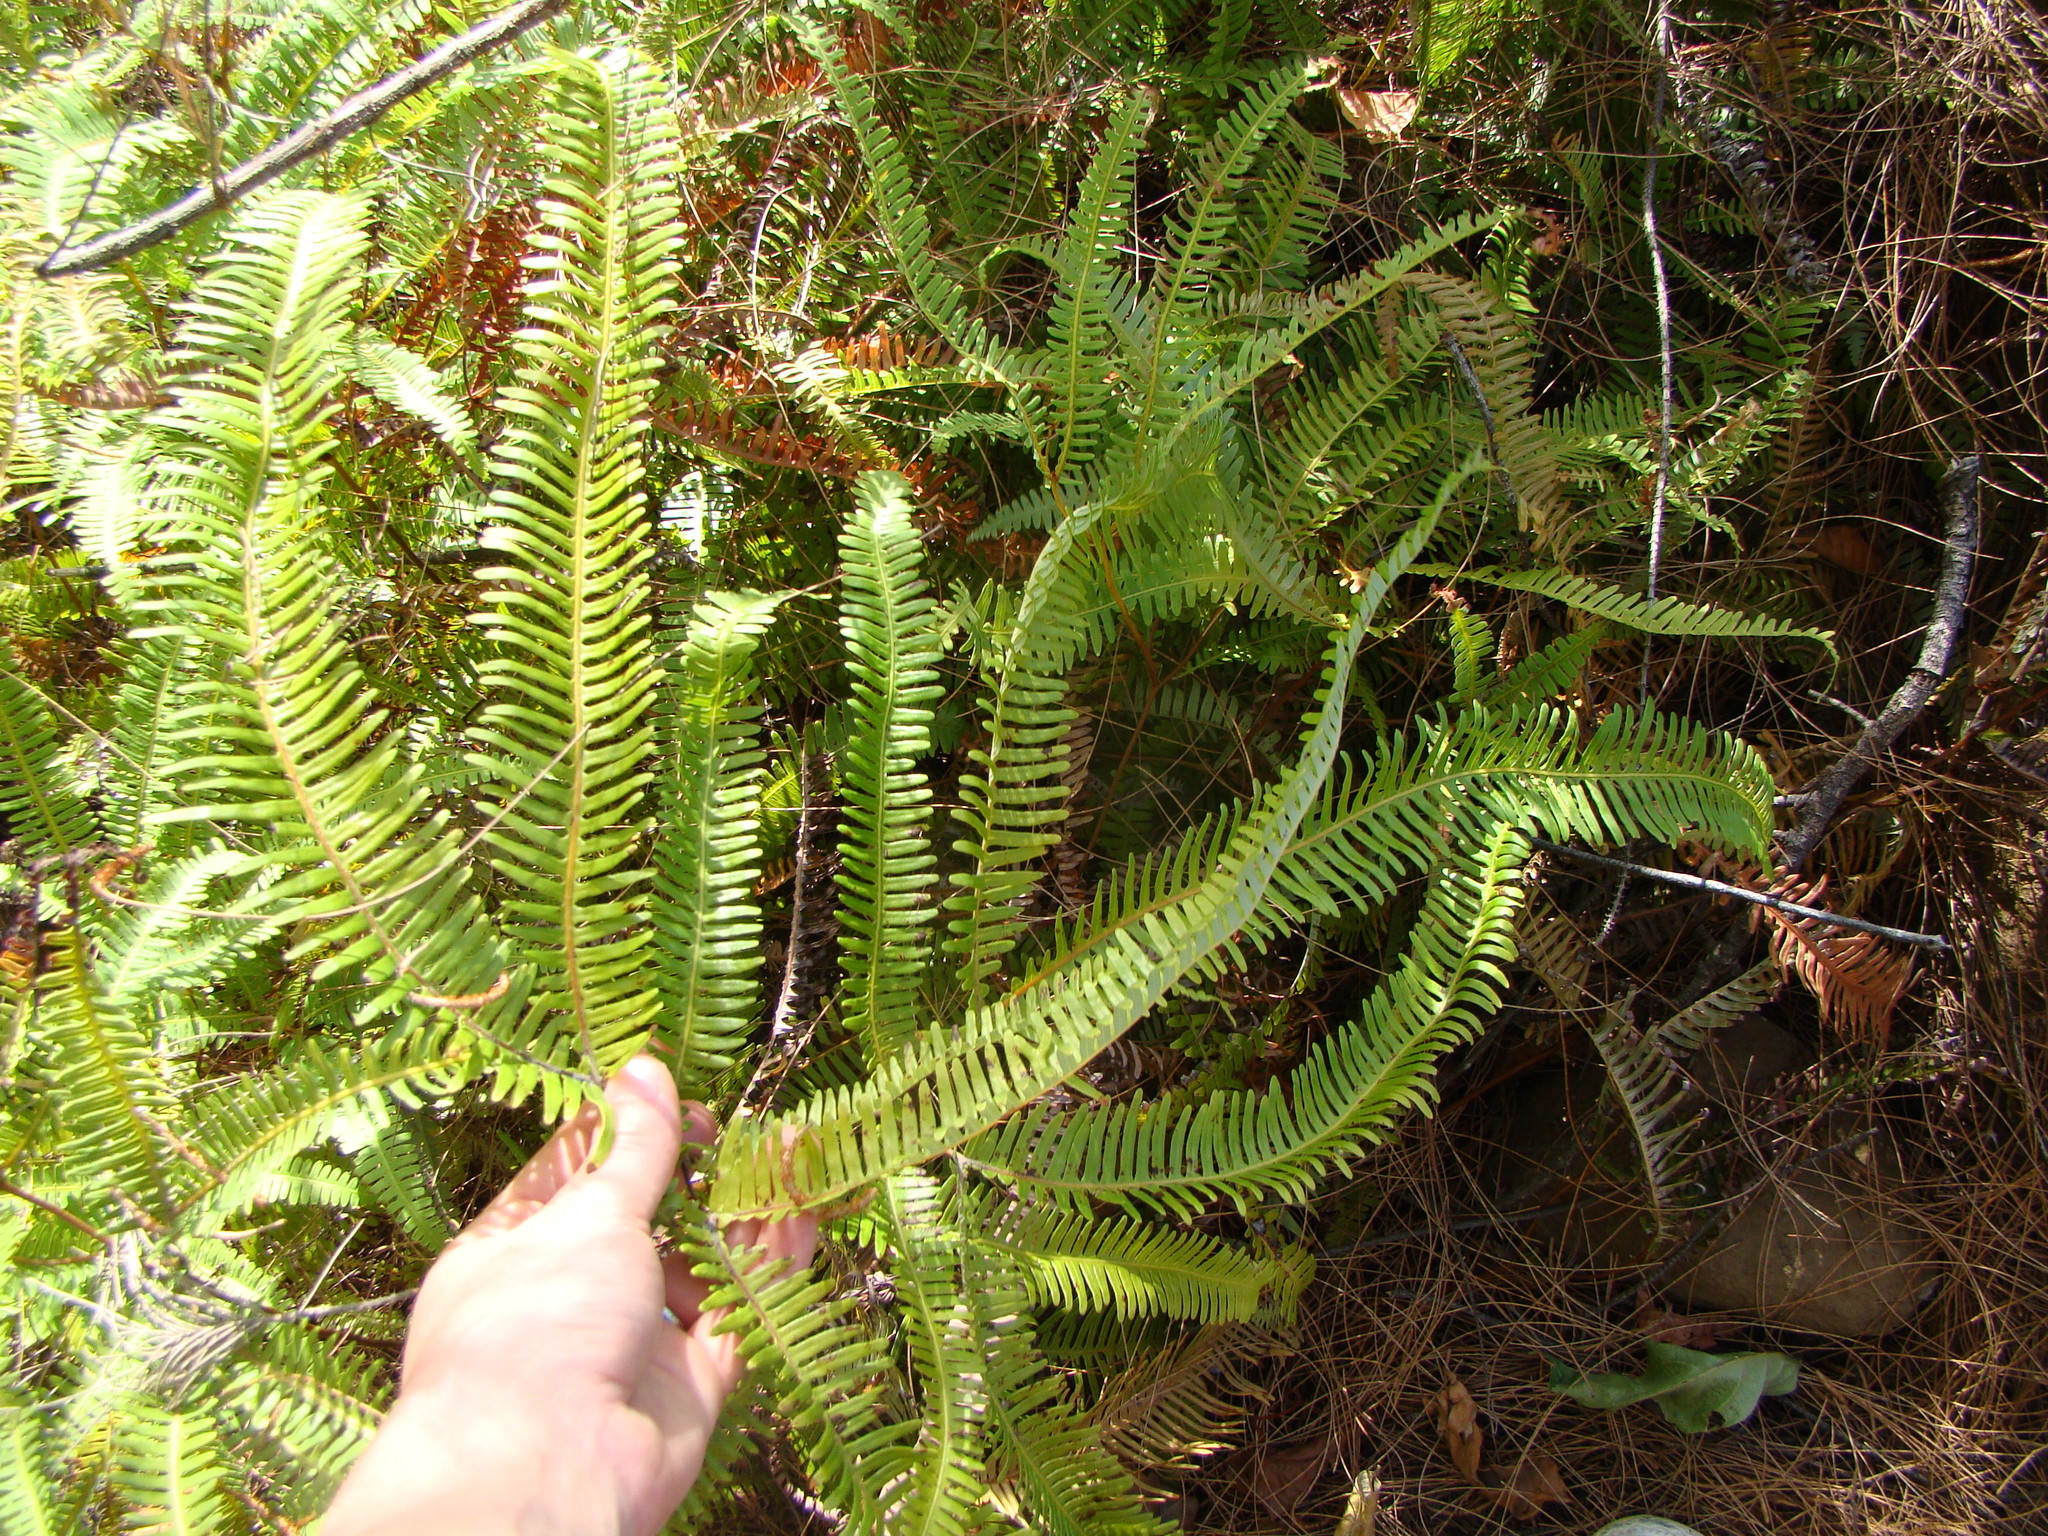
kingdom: Plantae
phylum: Tracheophyta
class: Polypodiopsida
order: Gleicheniales
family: Gleicheniaceae
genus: Dicranopteris
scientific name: Dicranopteris linearis
